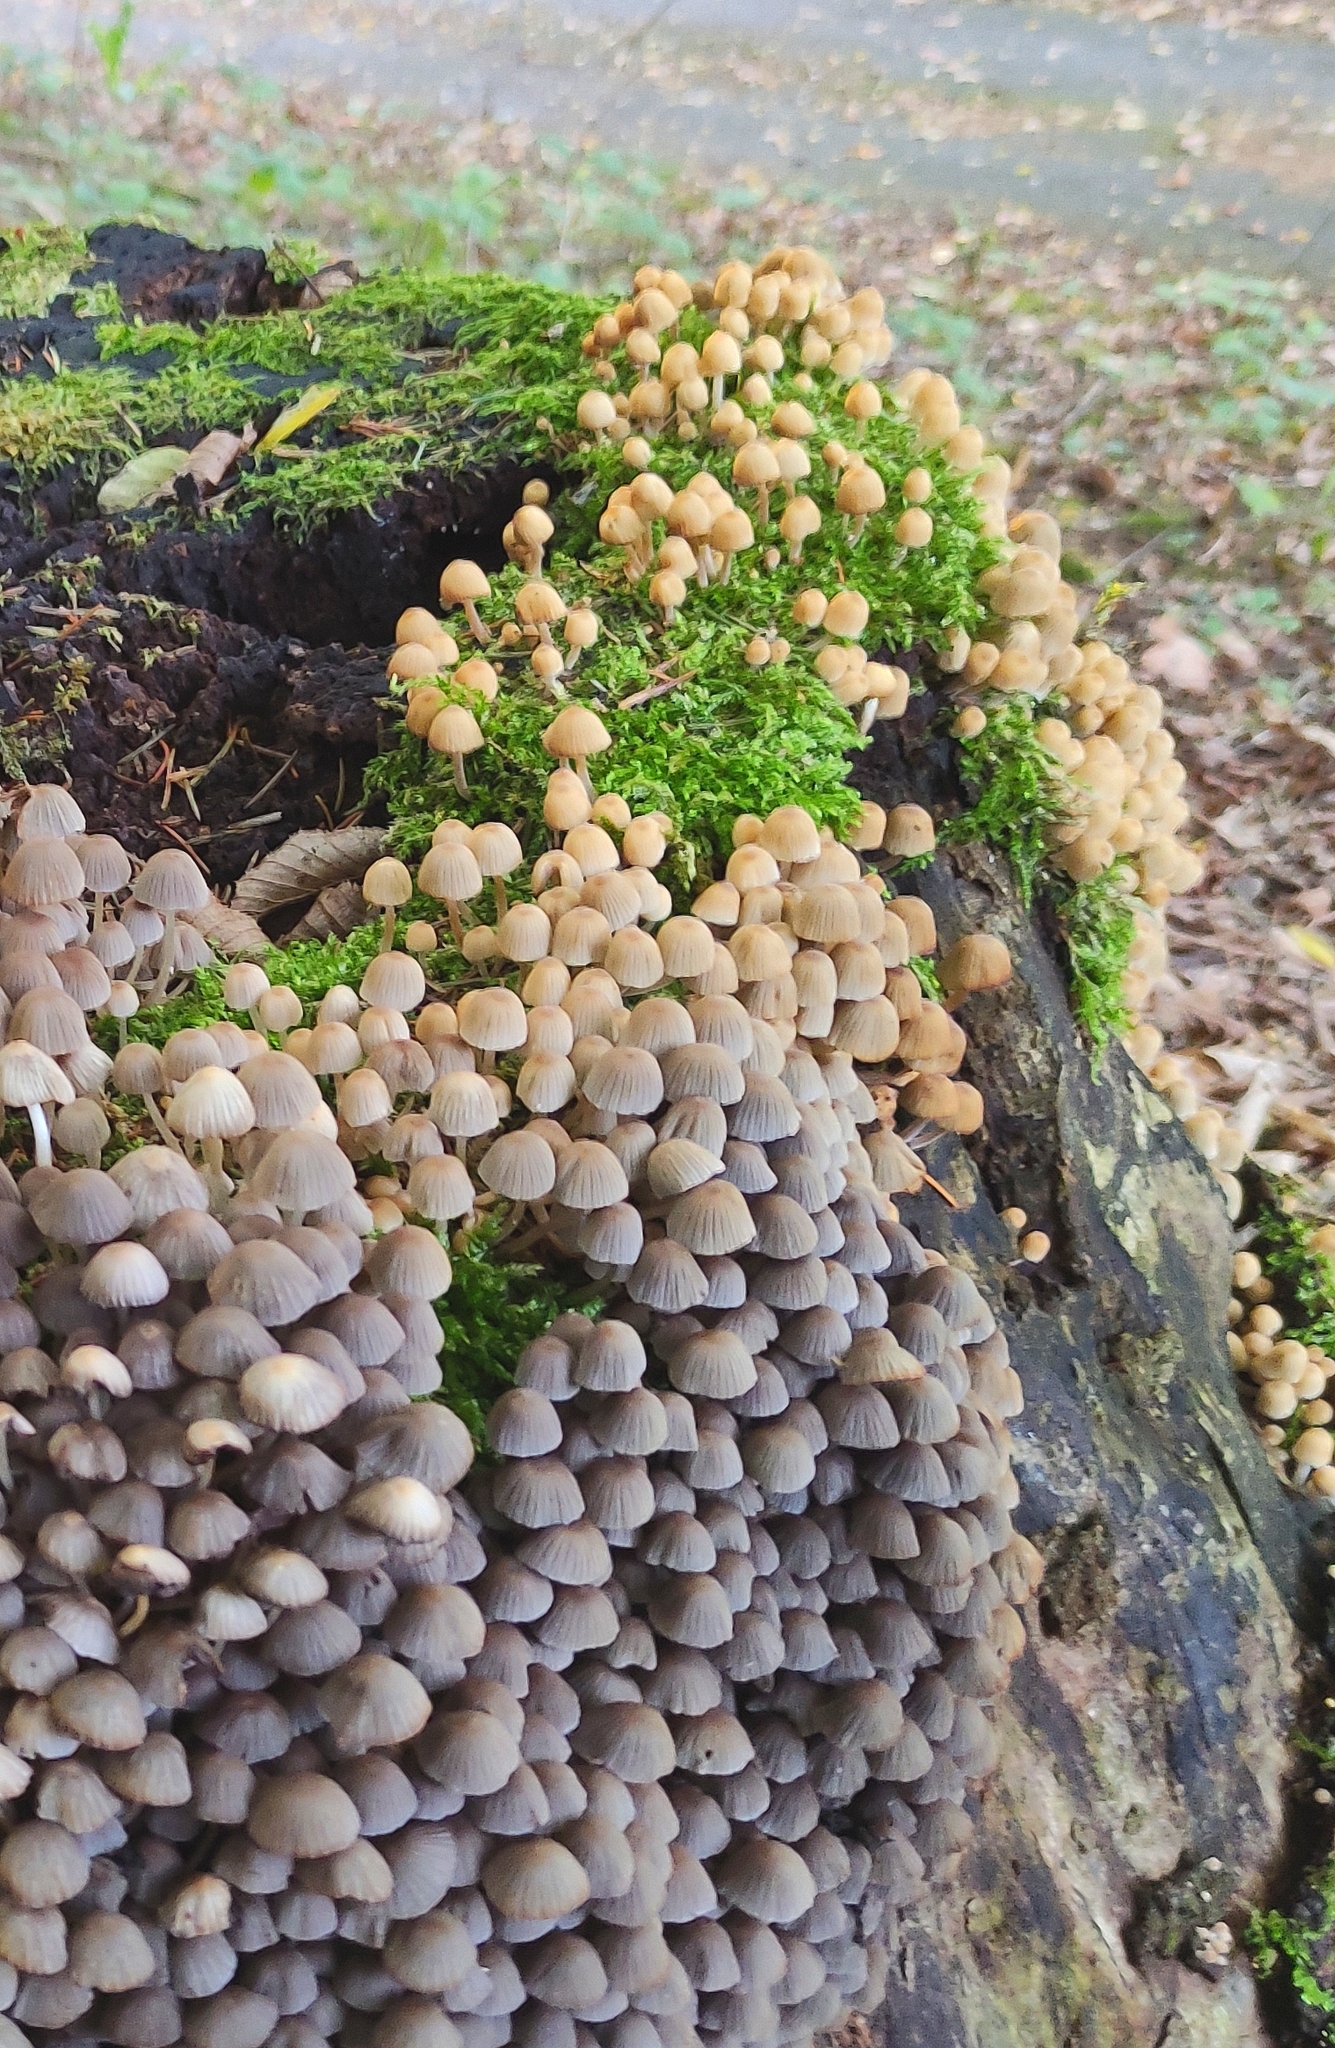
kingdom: Fungi
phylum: Basidiomycota
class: Agaricomycetes
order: Agaricales
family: Psathyrellaceae
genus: Coprinellus
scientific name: Coprinellus disseminatus
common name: Fairies' bonnets
